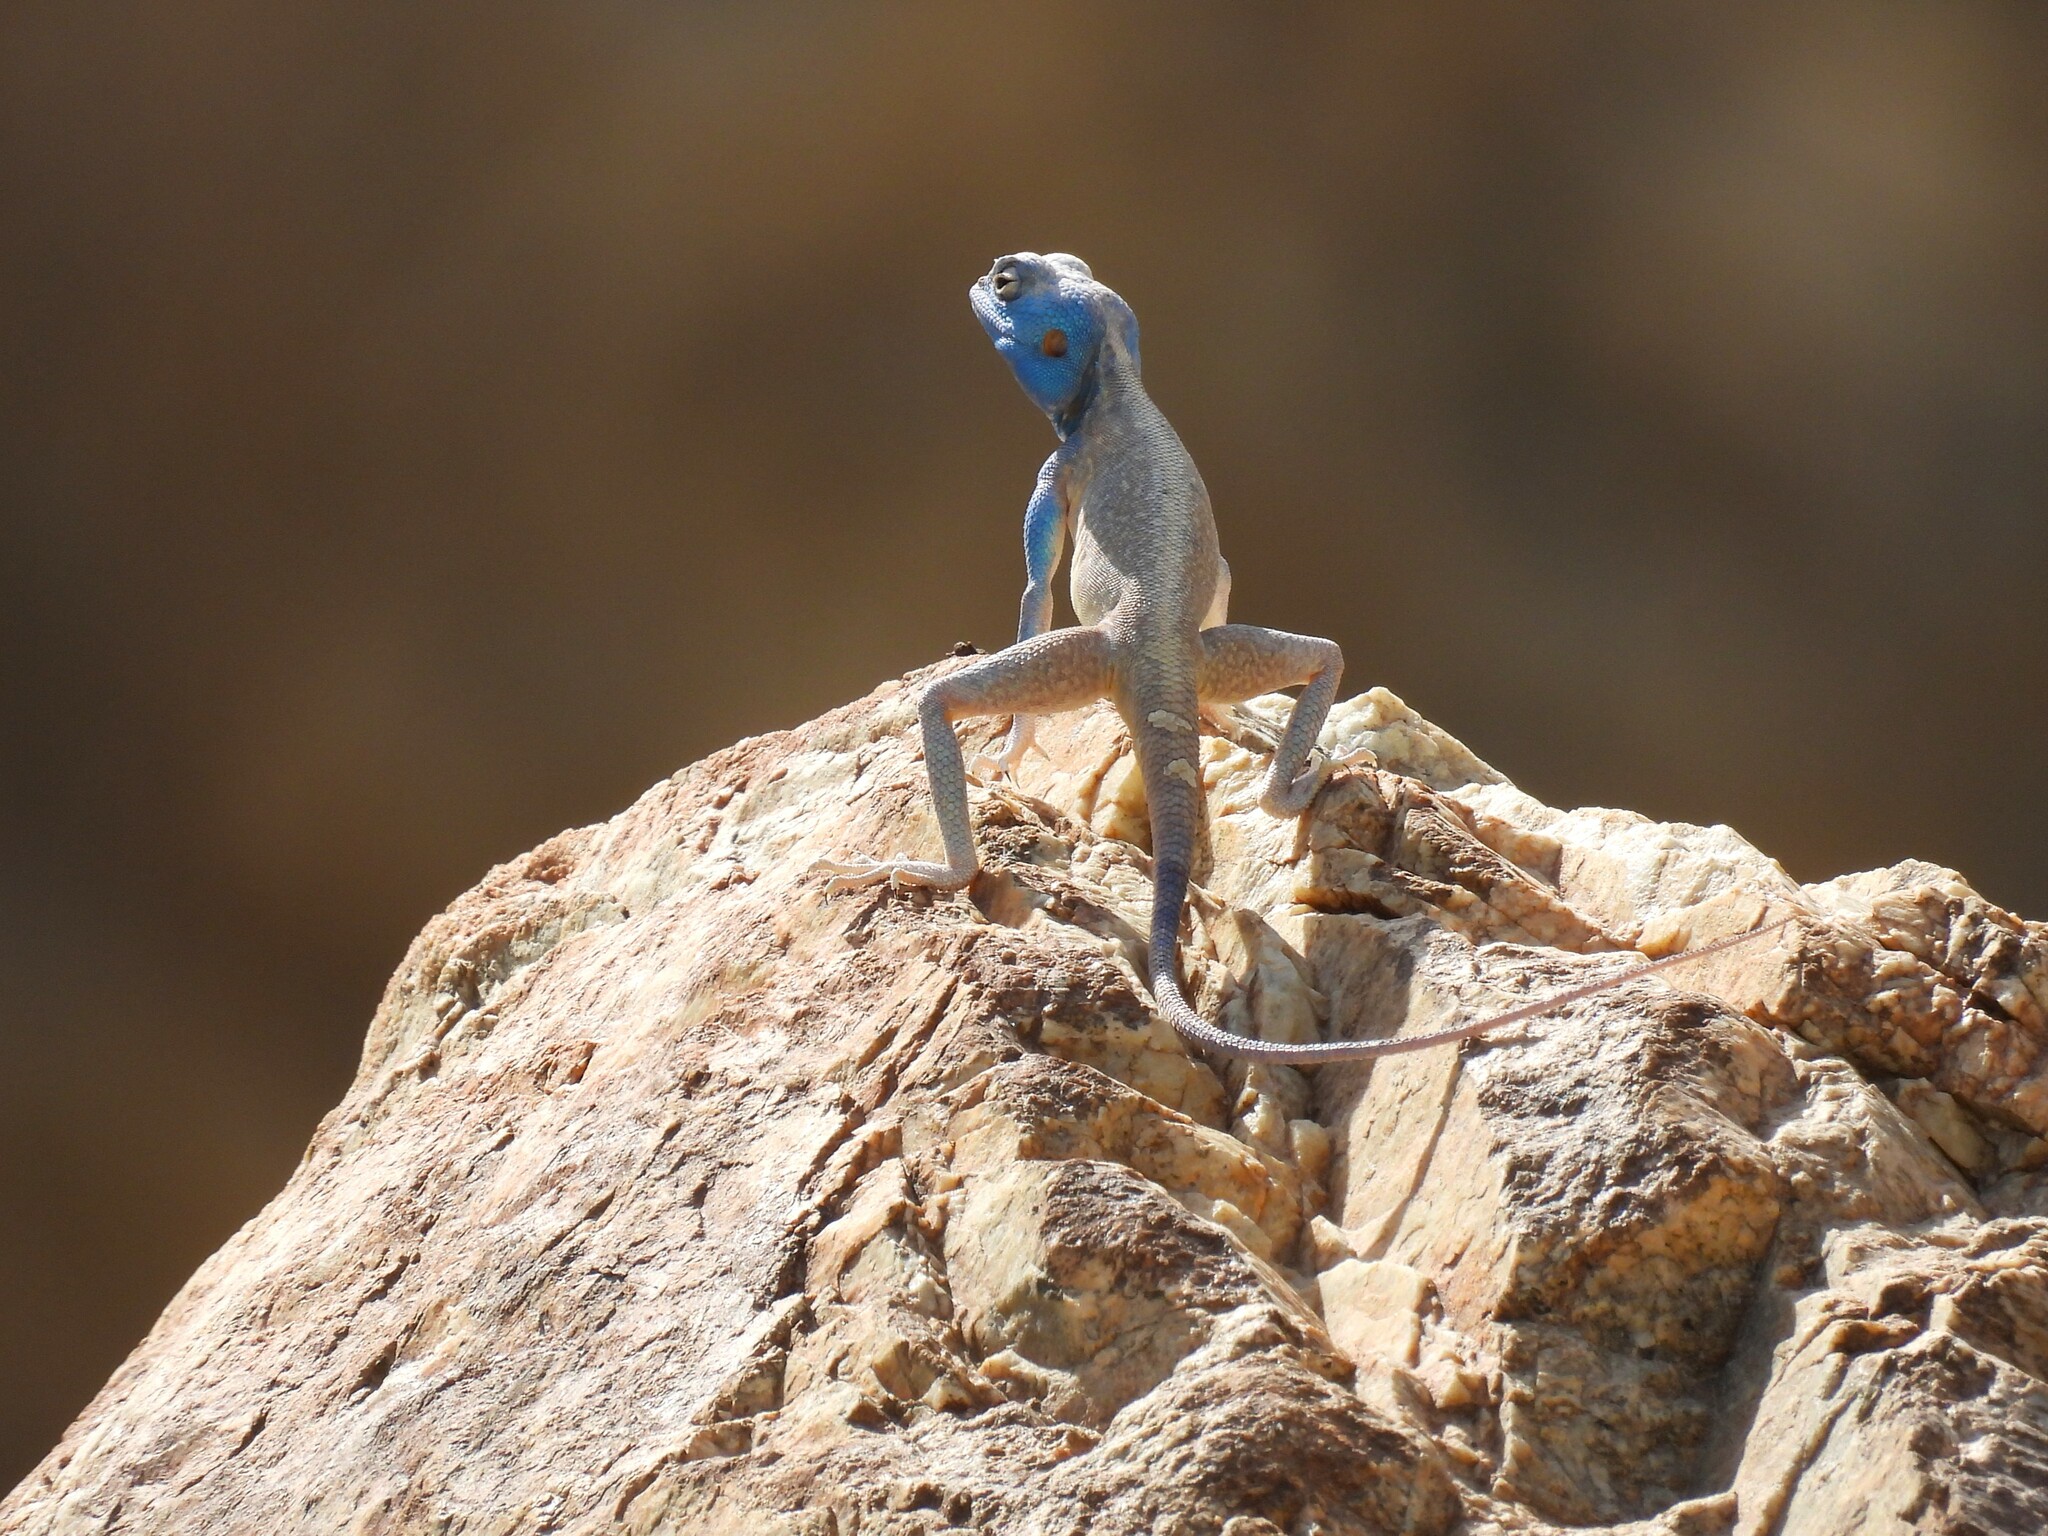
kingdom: Animalia
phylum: Chordata
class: Squamata
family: Agamidae
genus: Pseudotrapelus
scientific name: Pseudotrapelus jensvindumi
